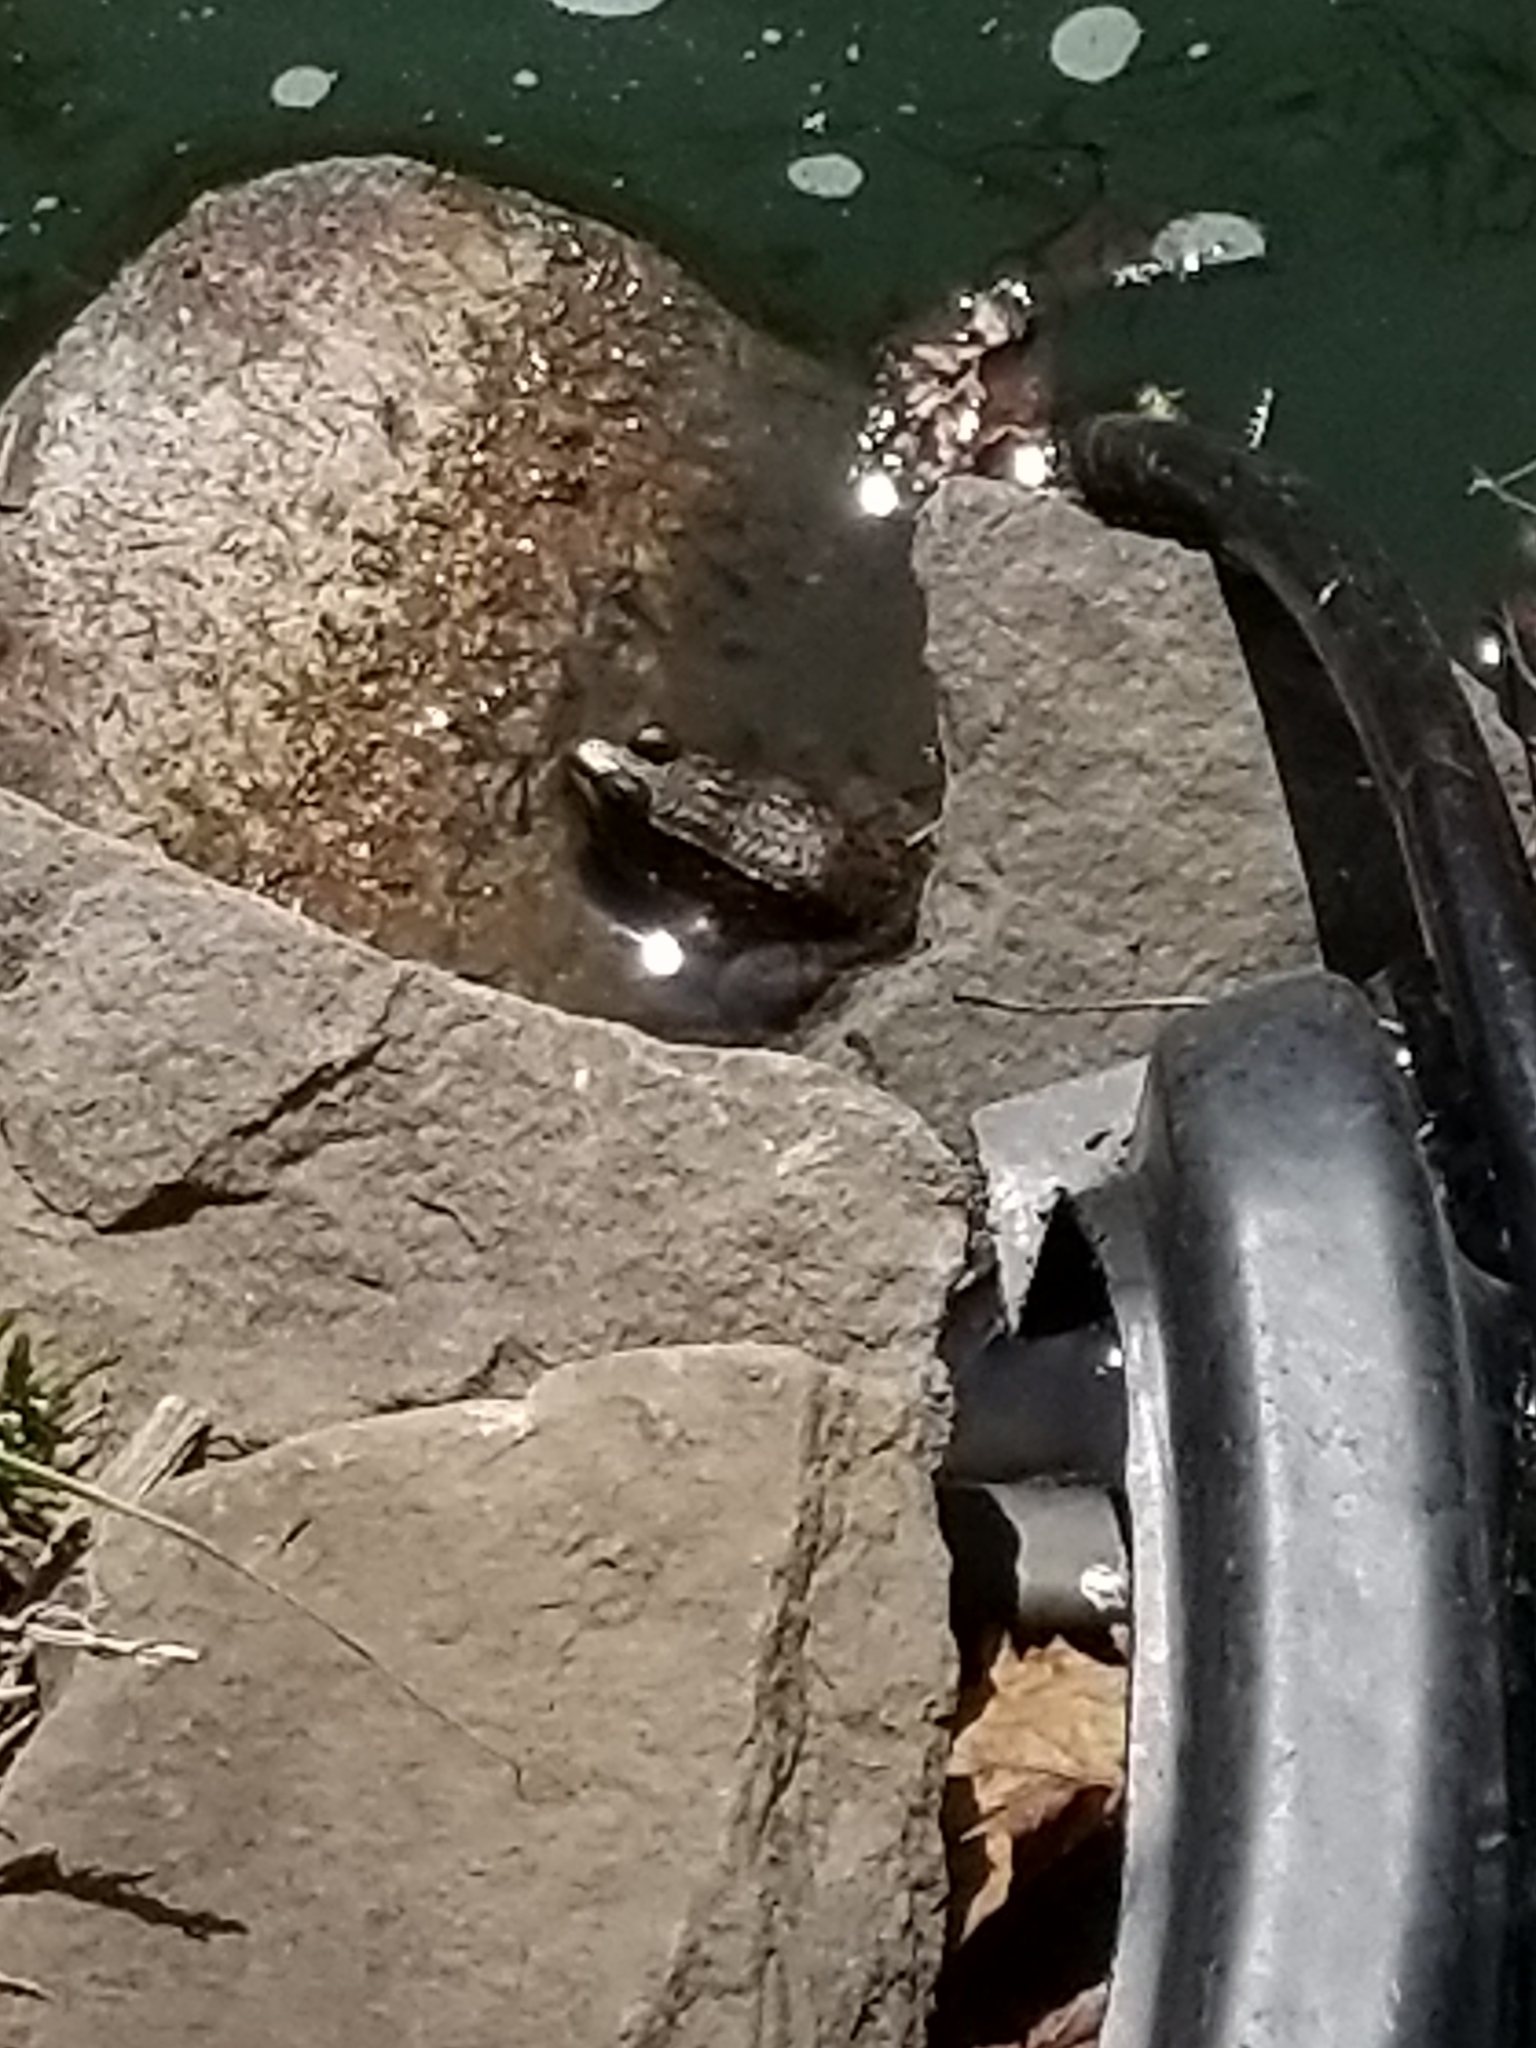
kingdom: Animalia
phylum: Chordata
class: Amphibia
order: Anura
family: Ranidae
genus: Lithobates
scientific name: Lithobates clamitans
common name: Green frog
